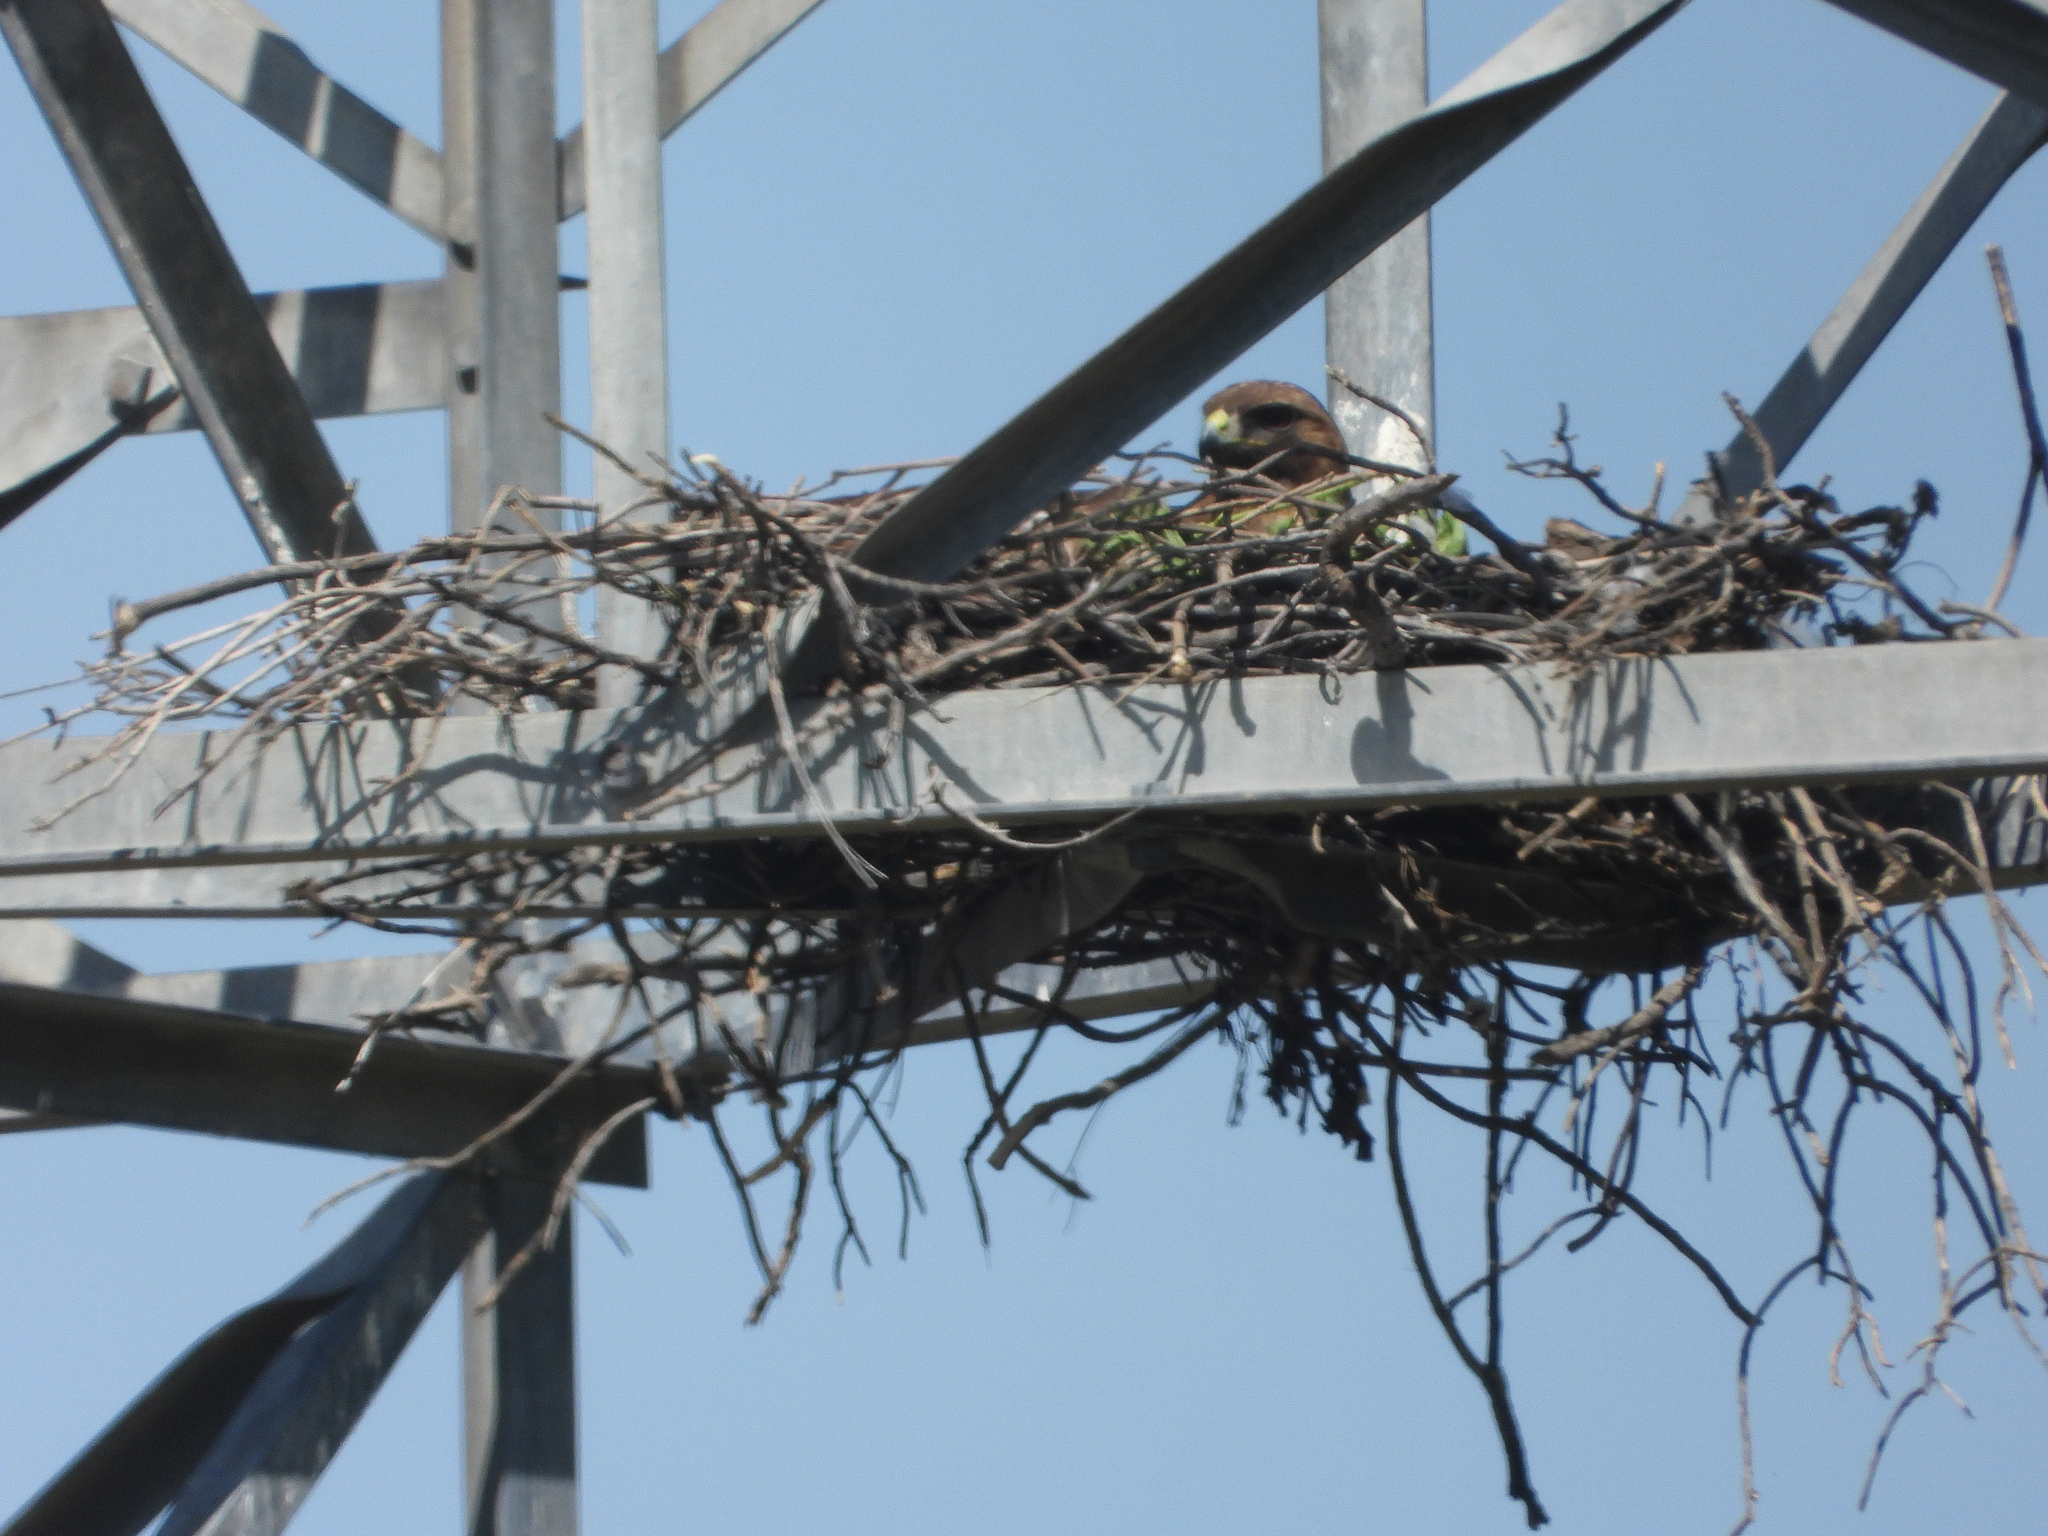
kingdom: Animalia
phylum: Chordata
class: Aves
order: Accipitriformes
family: Accipitridae
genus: Buteo
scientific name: Buteo jamaicensis
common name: Red-tailed hawk
